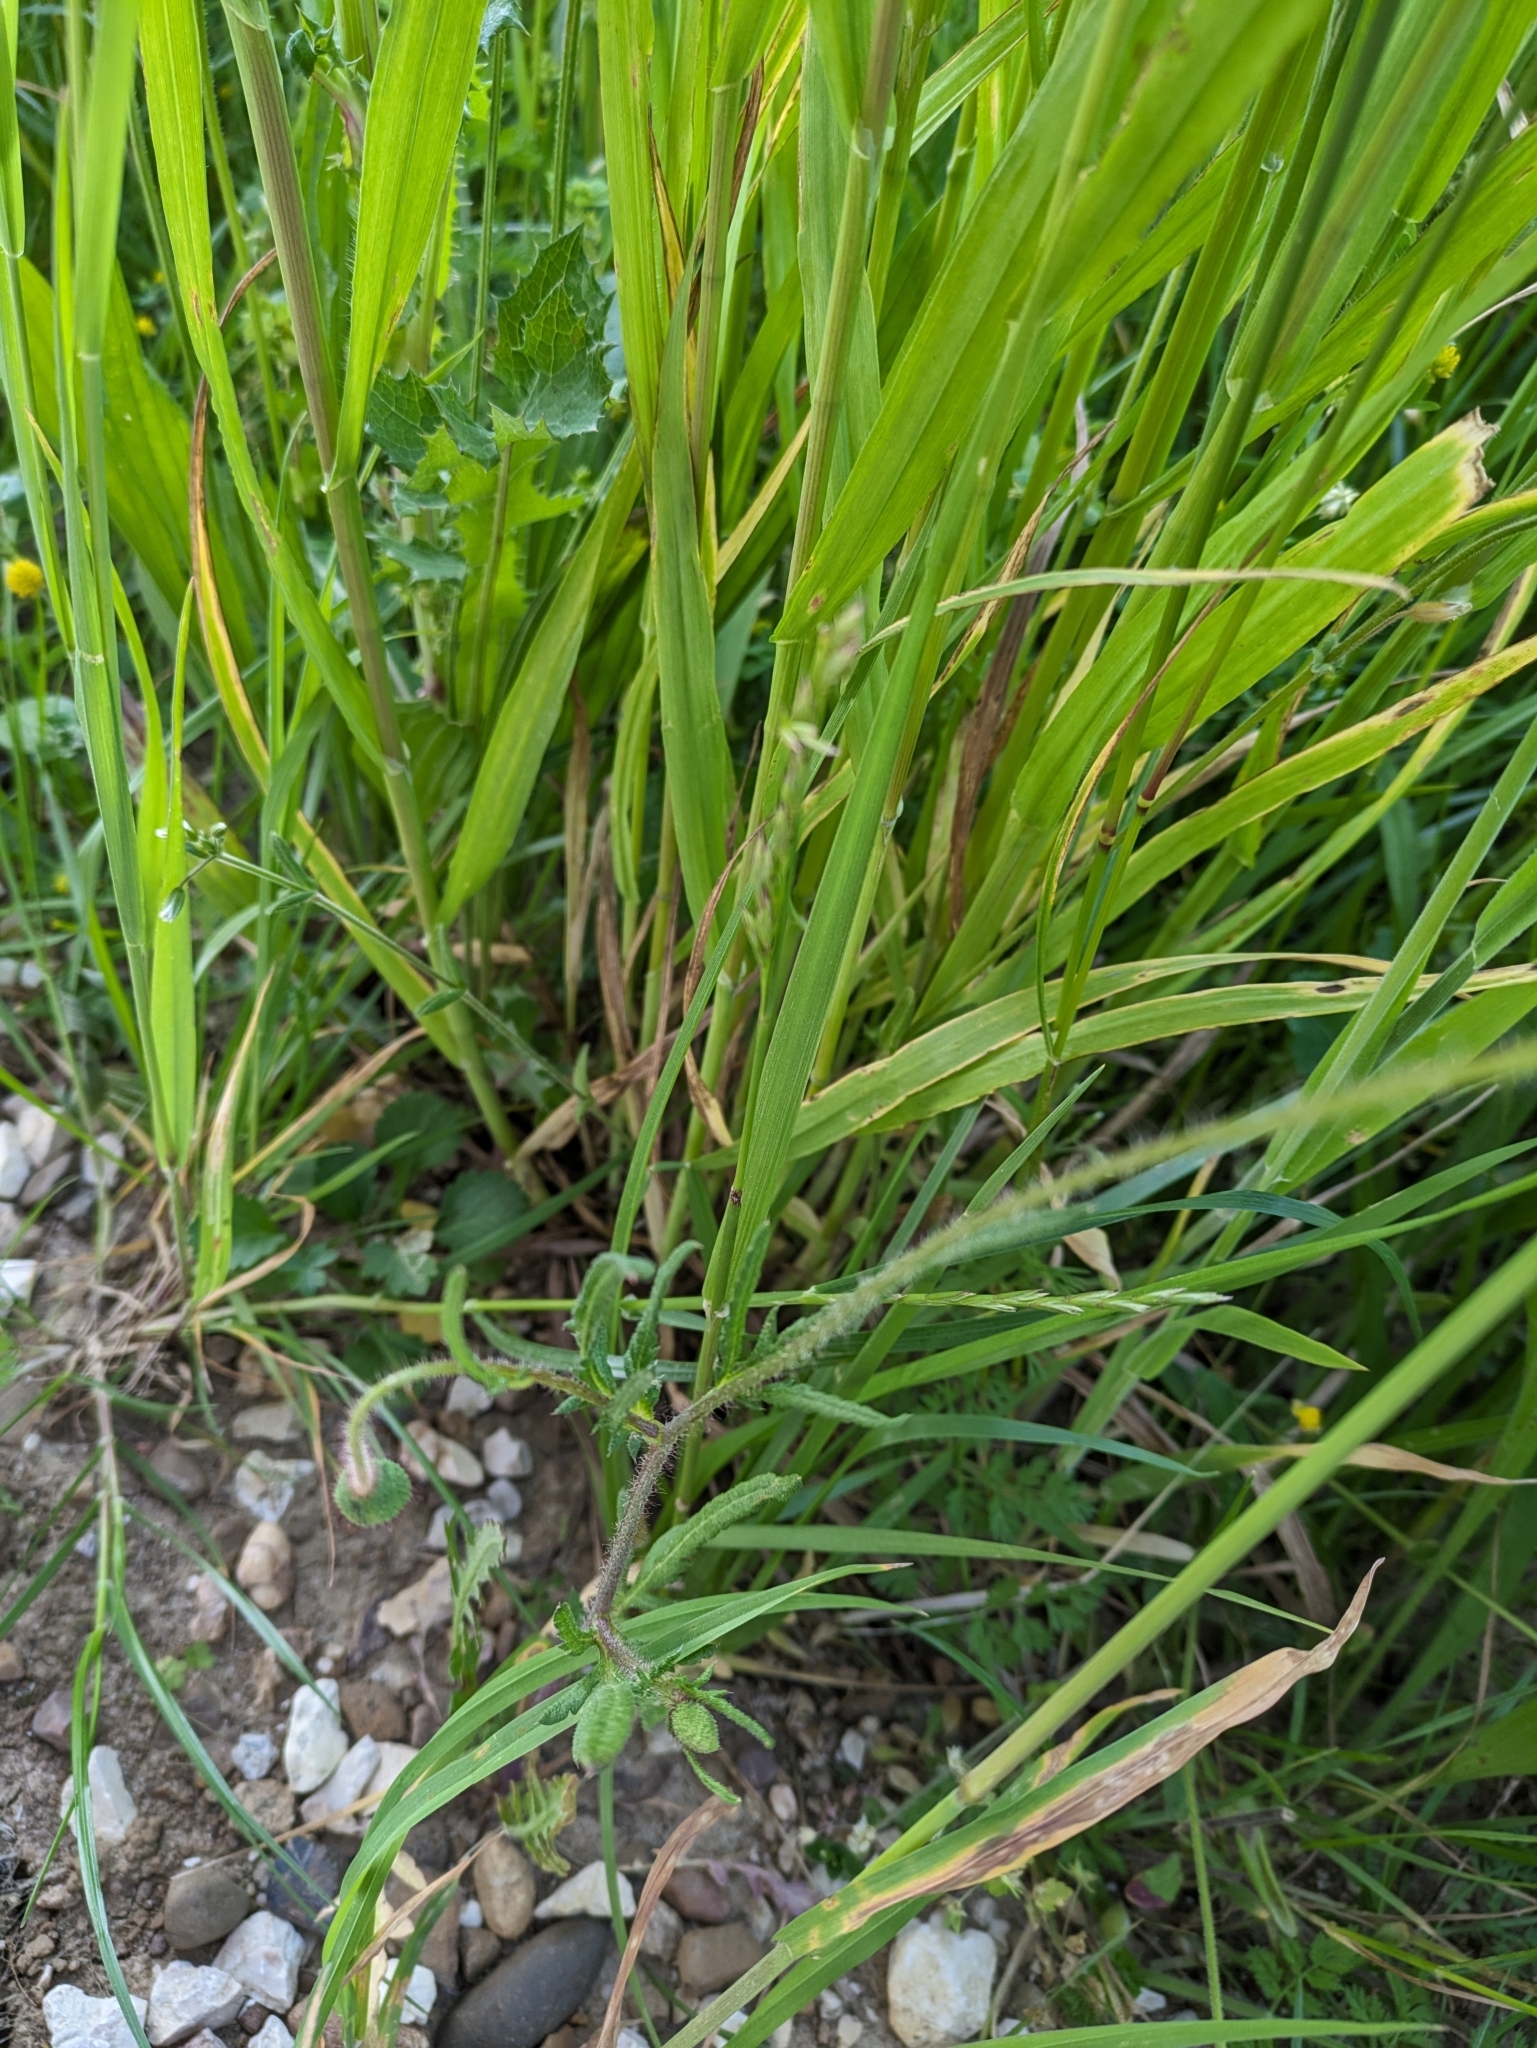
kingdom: Plantae
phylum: Tracheophyta
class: Magnoliopsida
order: Ranunculales
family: Papaveraceae
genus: Papaver
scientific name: Papaver rhoeas
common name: Corn poppy
